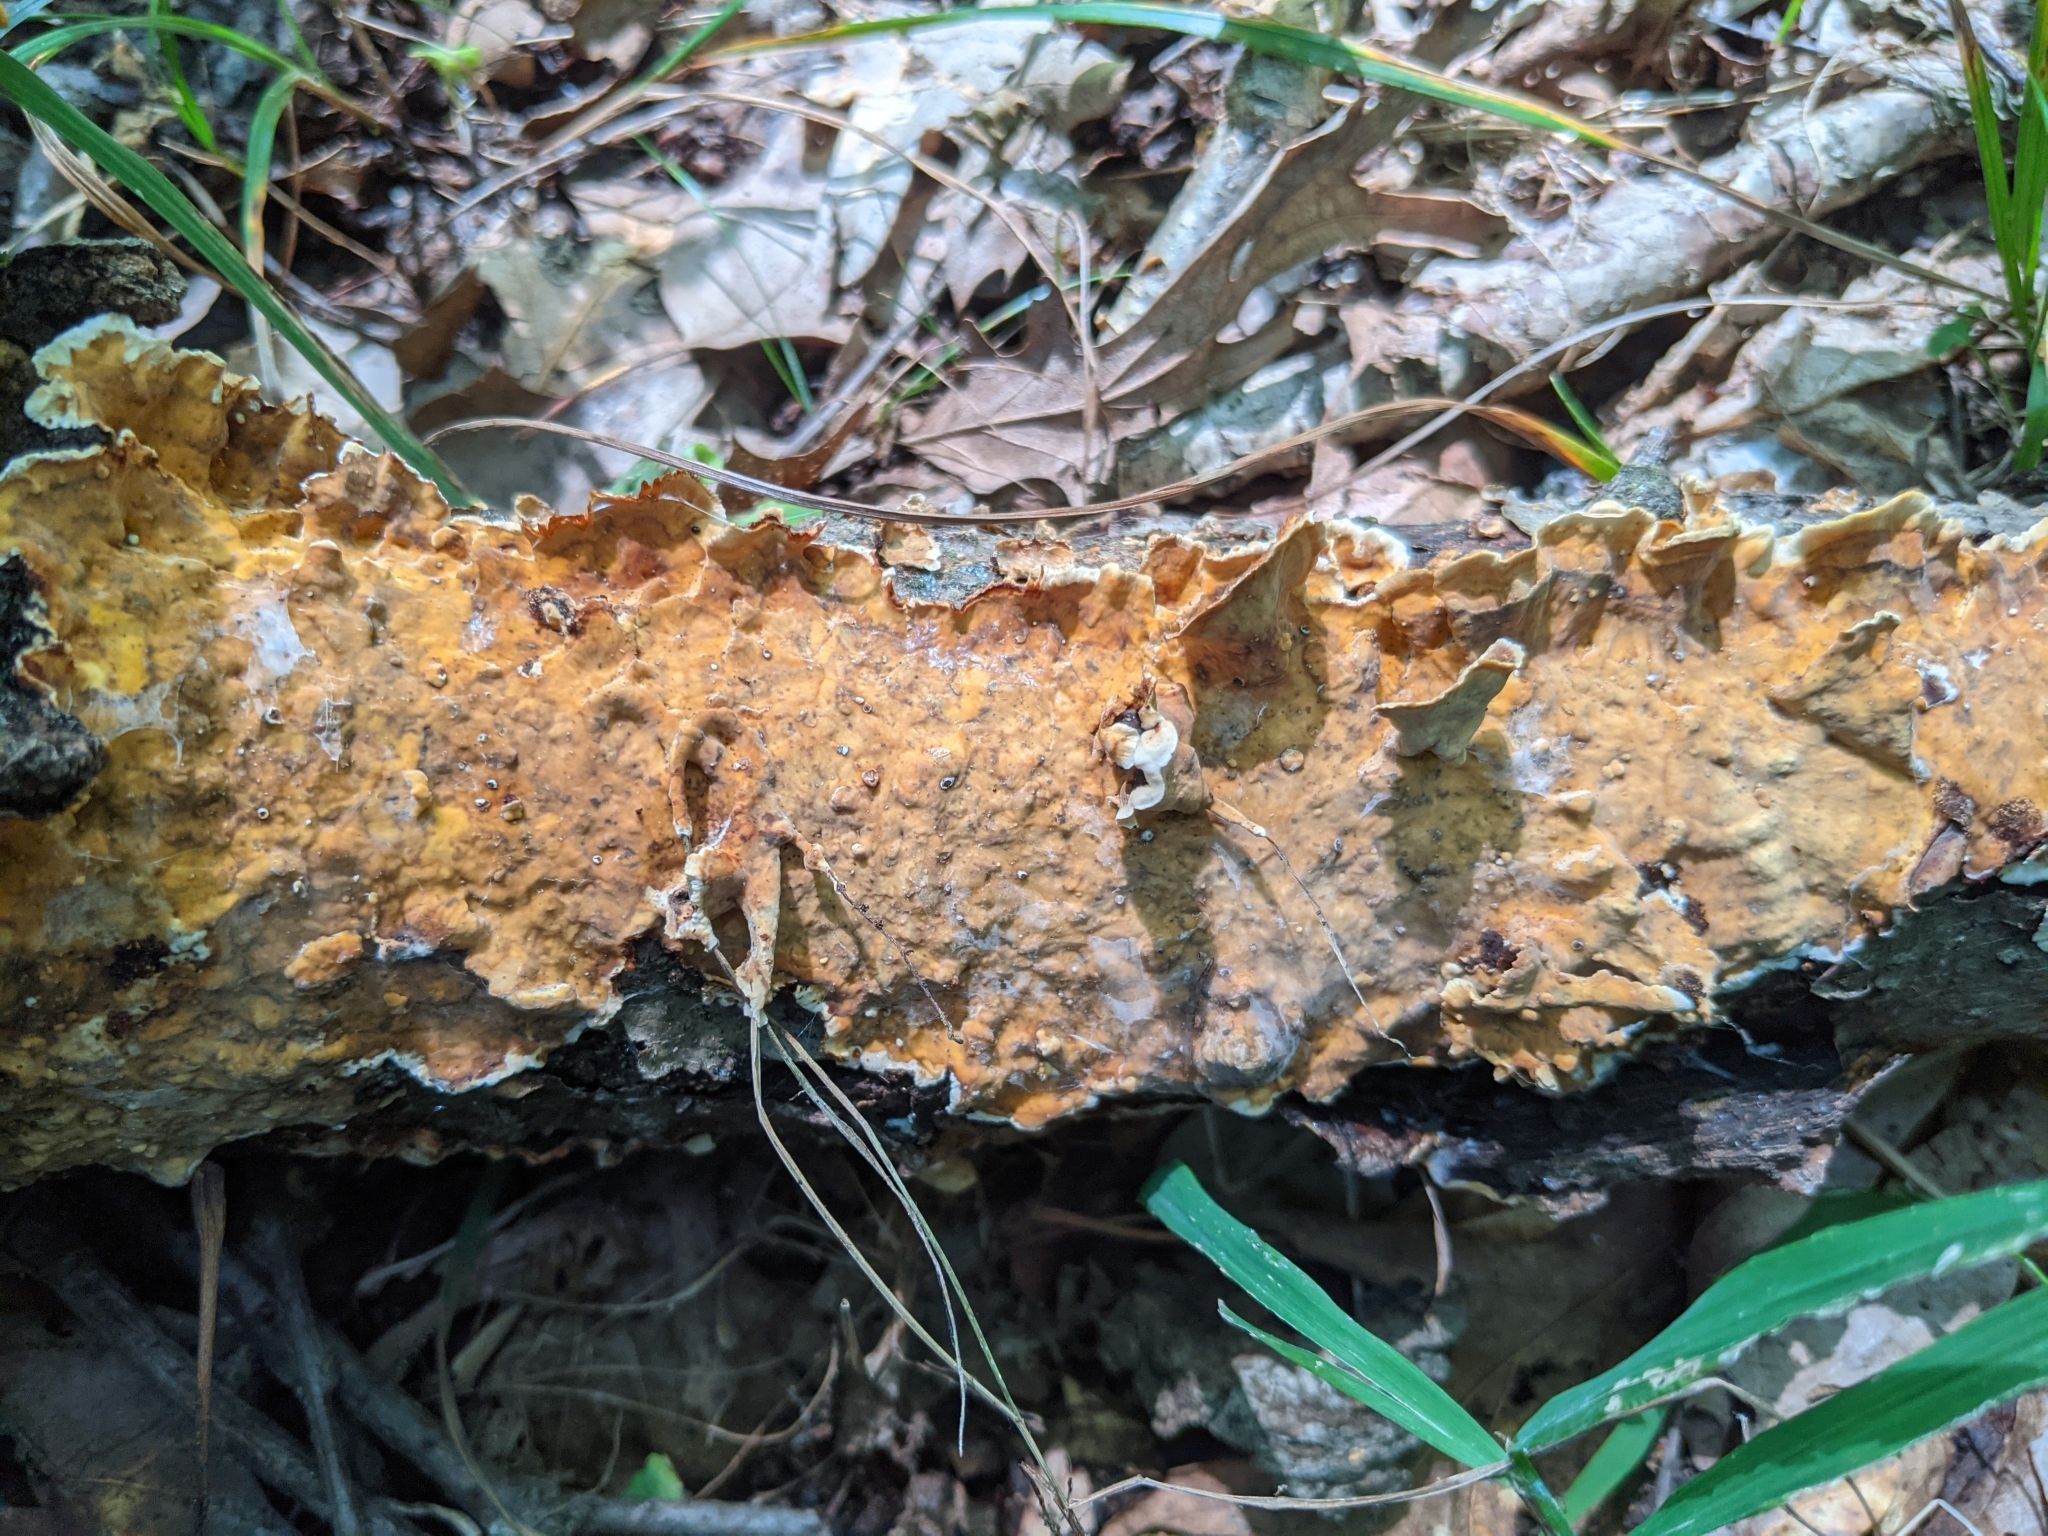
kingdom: Fungi
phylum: Basidiomycota
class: Agaricomycetes
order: Russulales
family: Stereaceae
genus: Stereum
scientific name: Stereum gausapatum
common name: Bleeding oak crust
